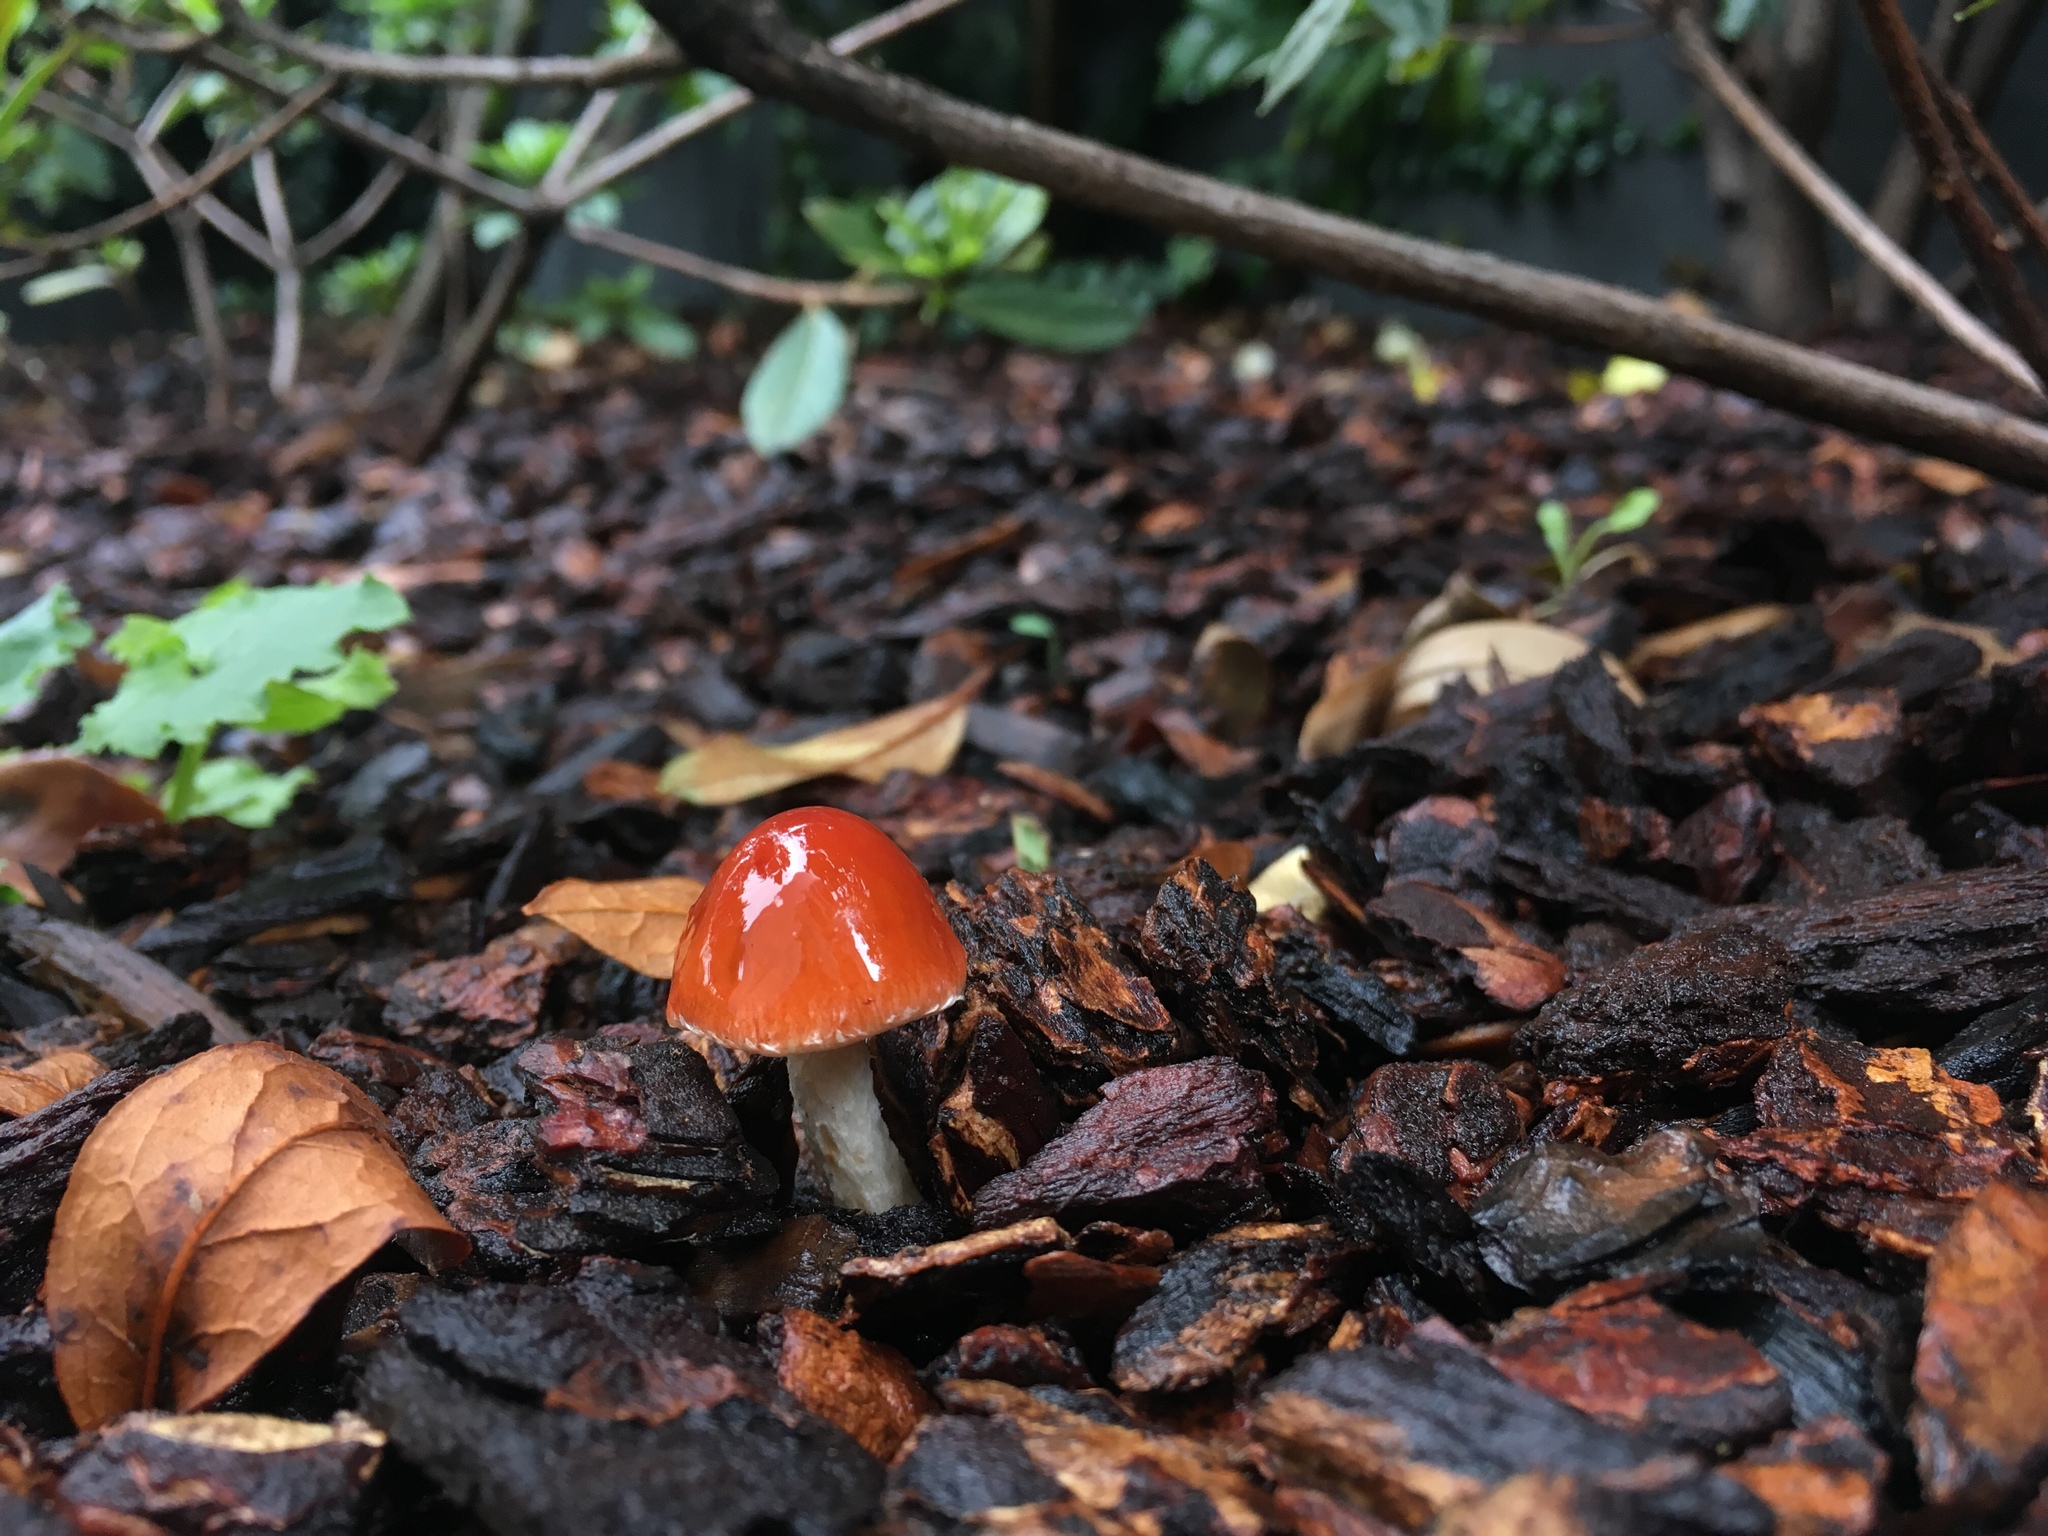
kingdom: Fungi
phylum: Basidiomycota
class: Agaricomycetes
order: Agaricales
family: Strophariaceae
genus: Leratiomyces
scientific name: Leratiomyces ceres
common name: Redlead roundhead
